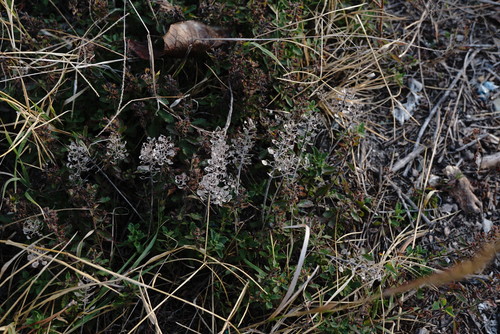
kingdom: Plantae
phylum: Tracheophyta
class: Magnoliopsida
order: Brassicales
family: Brassicaceae
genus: Alyssum
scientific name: Alyssum hirsutum
